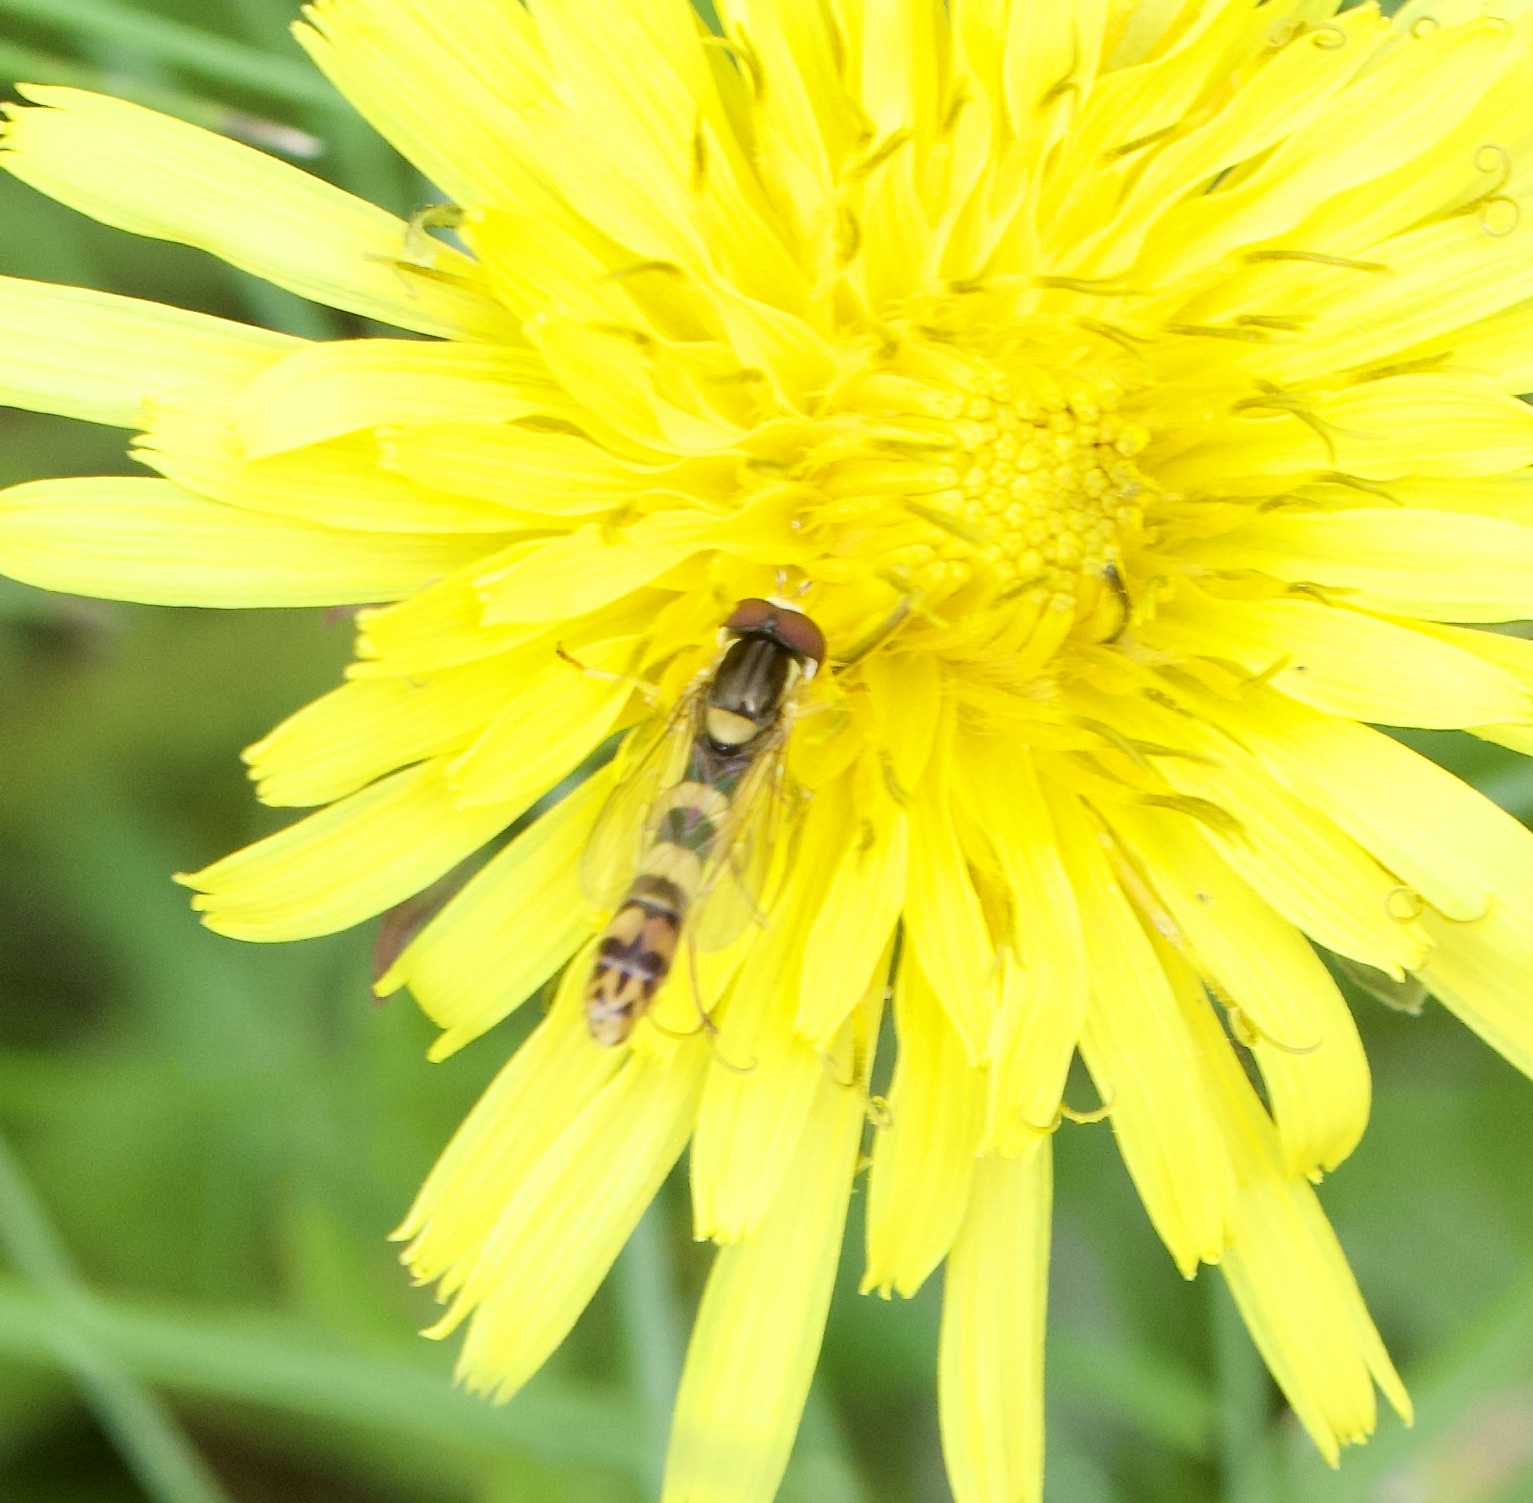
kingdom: Animalia
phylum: Arthropoda
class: Insecta
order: Diptera
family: Syrphidae
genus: Sphaerophoria
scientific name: Sphaerophoria scripta
